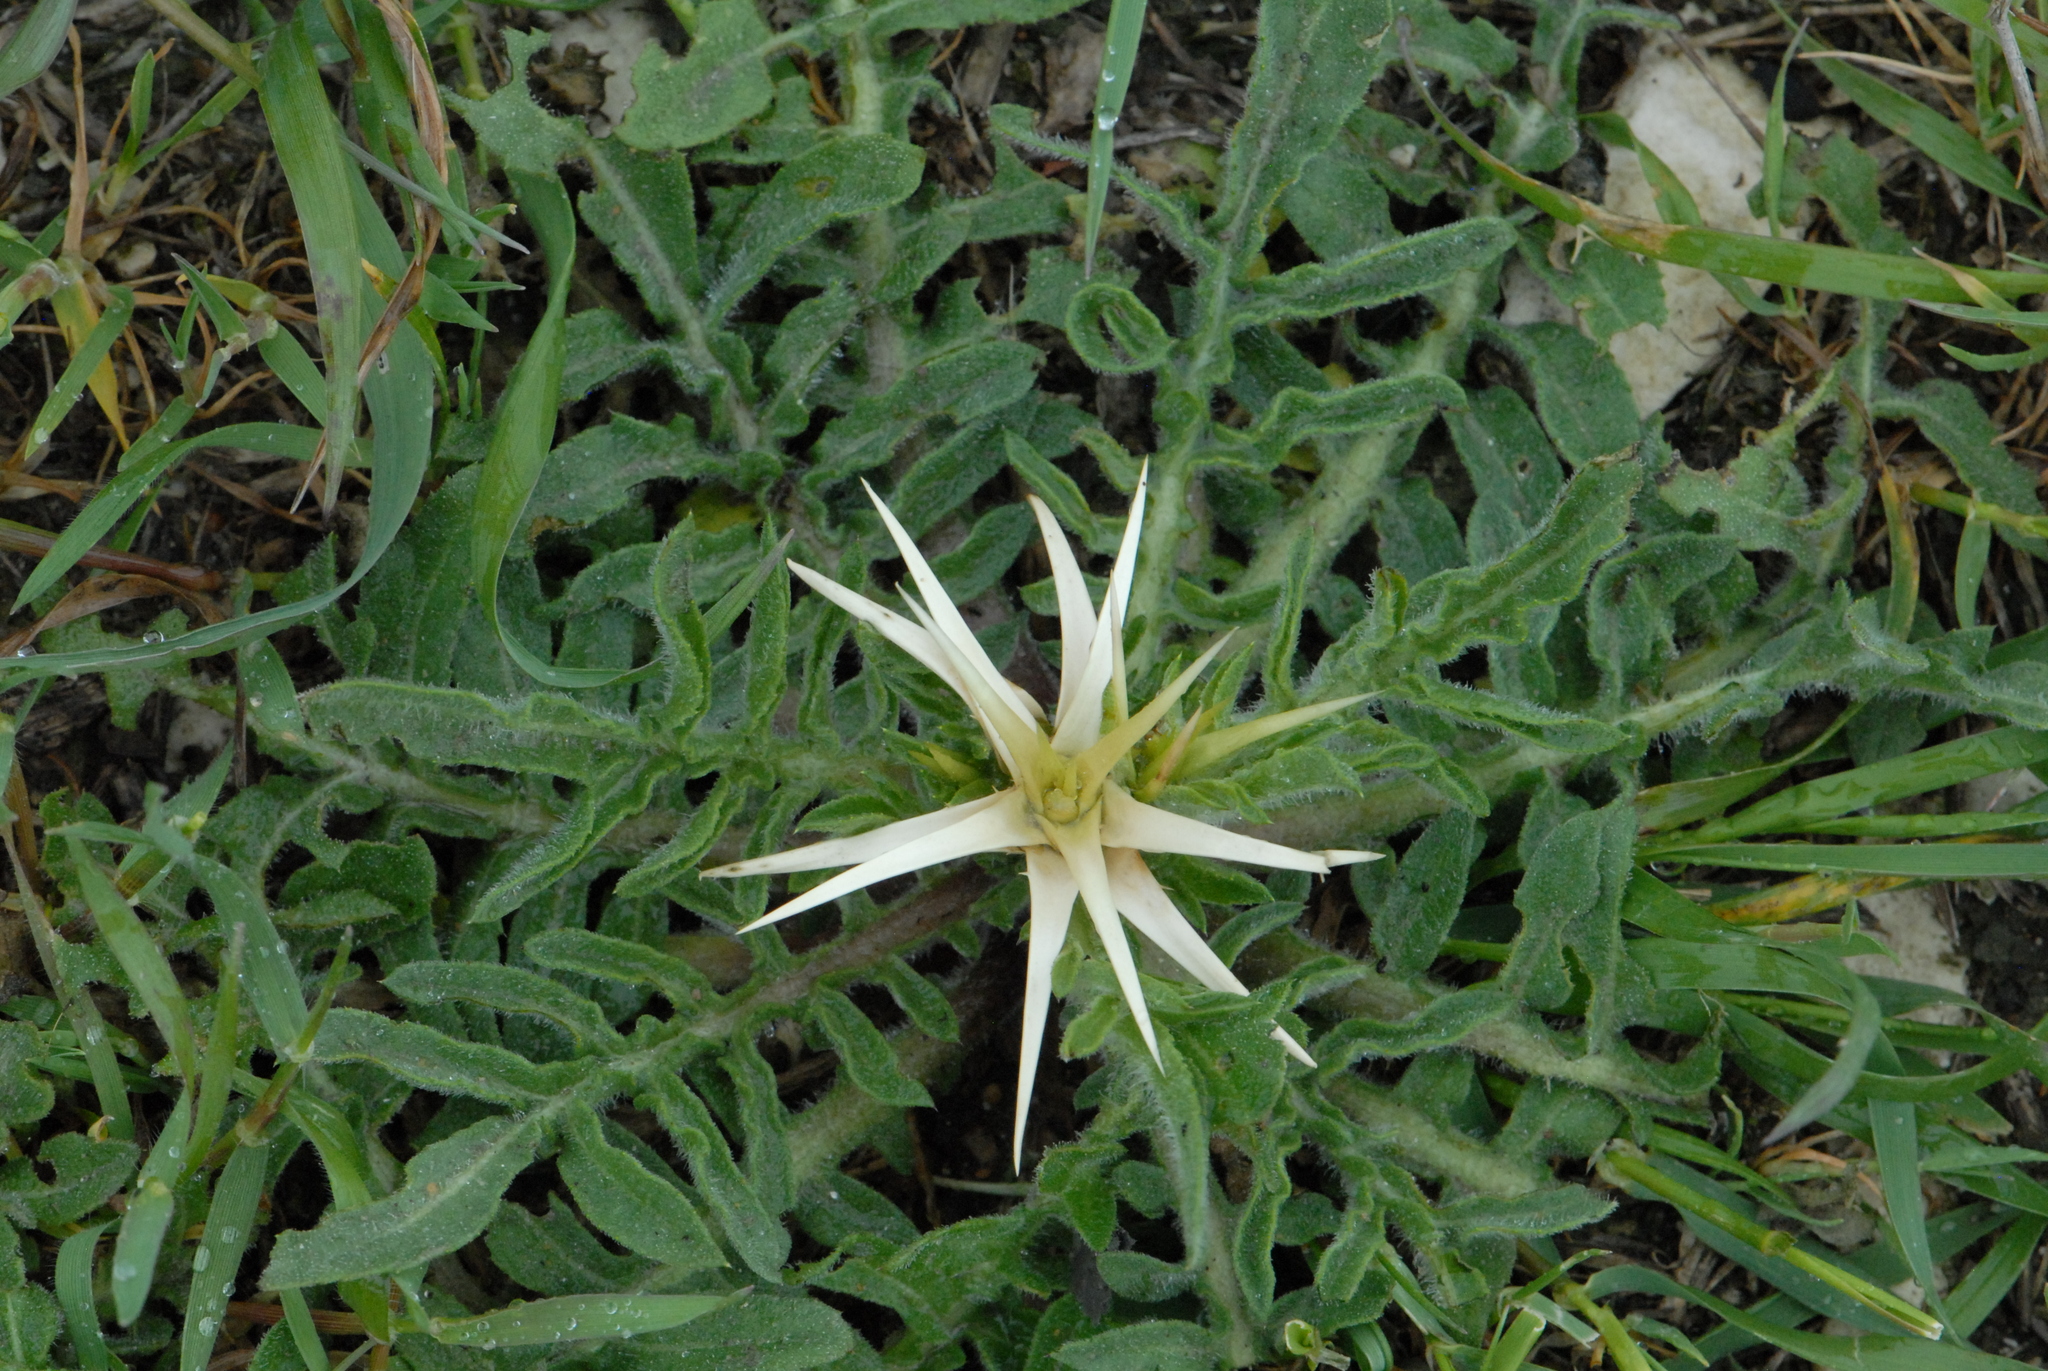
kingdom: Plantae
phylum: Tracheophyta
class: Magnoliopsida
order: Asterales
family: Asteraceae
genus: Centaurea
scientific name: Centaurea iberica
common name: Iberian knapweed
